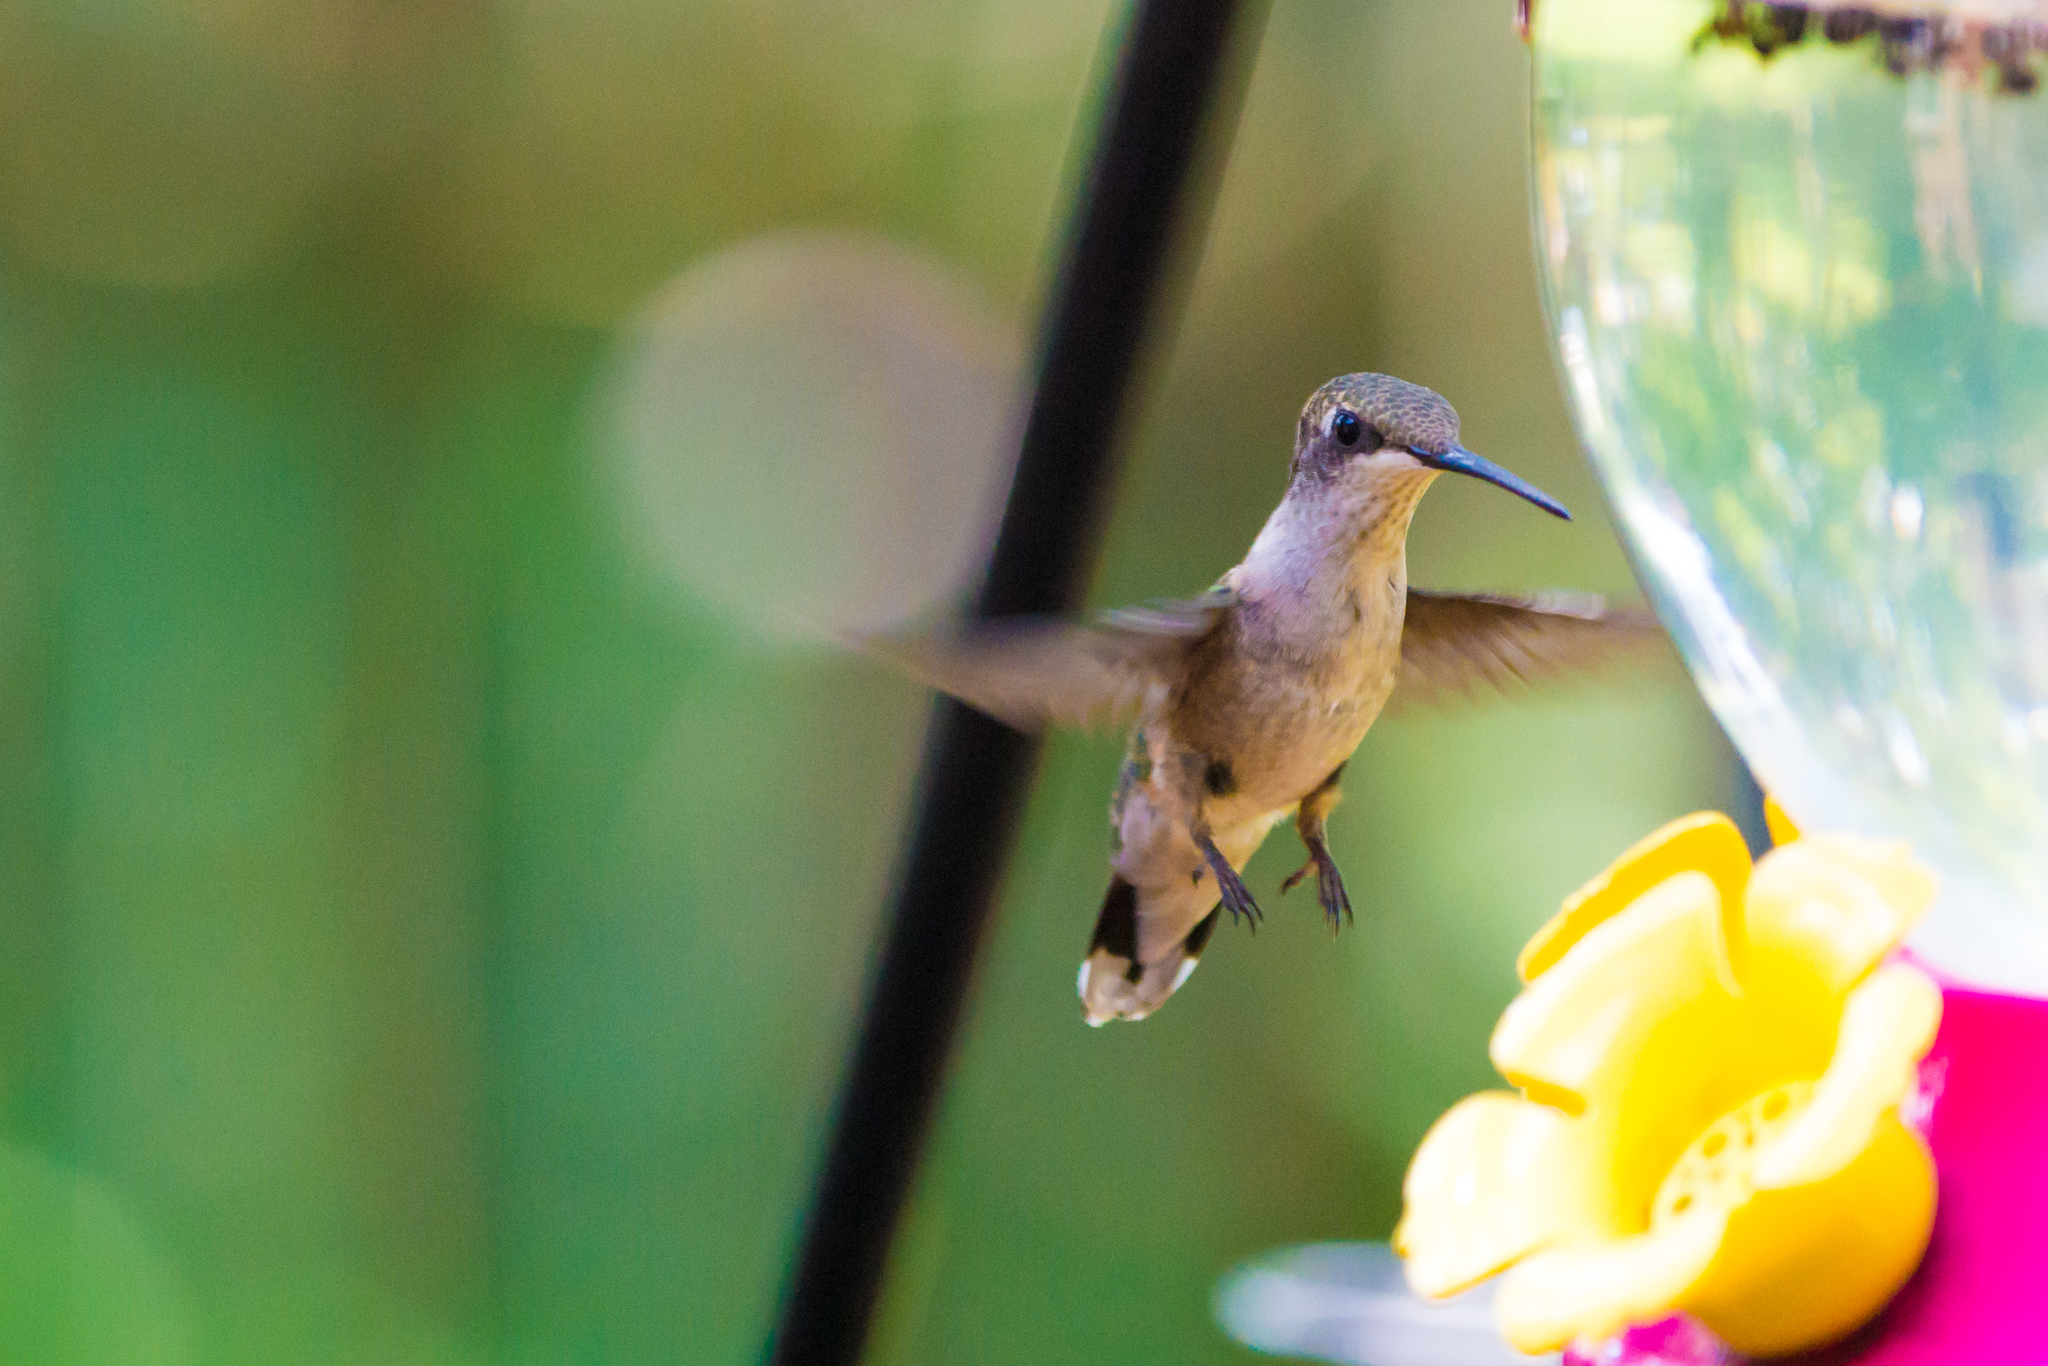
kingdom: Animalia
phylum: Chordata
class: Aves
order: Apodiformes
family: Trochilidae
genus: Archilochus
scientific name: Archilochus colubris
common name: Ruby-throated hummingbird
